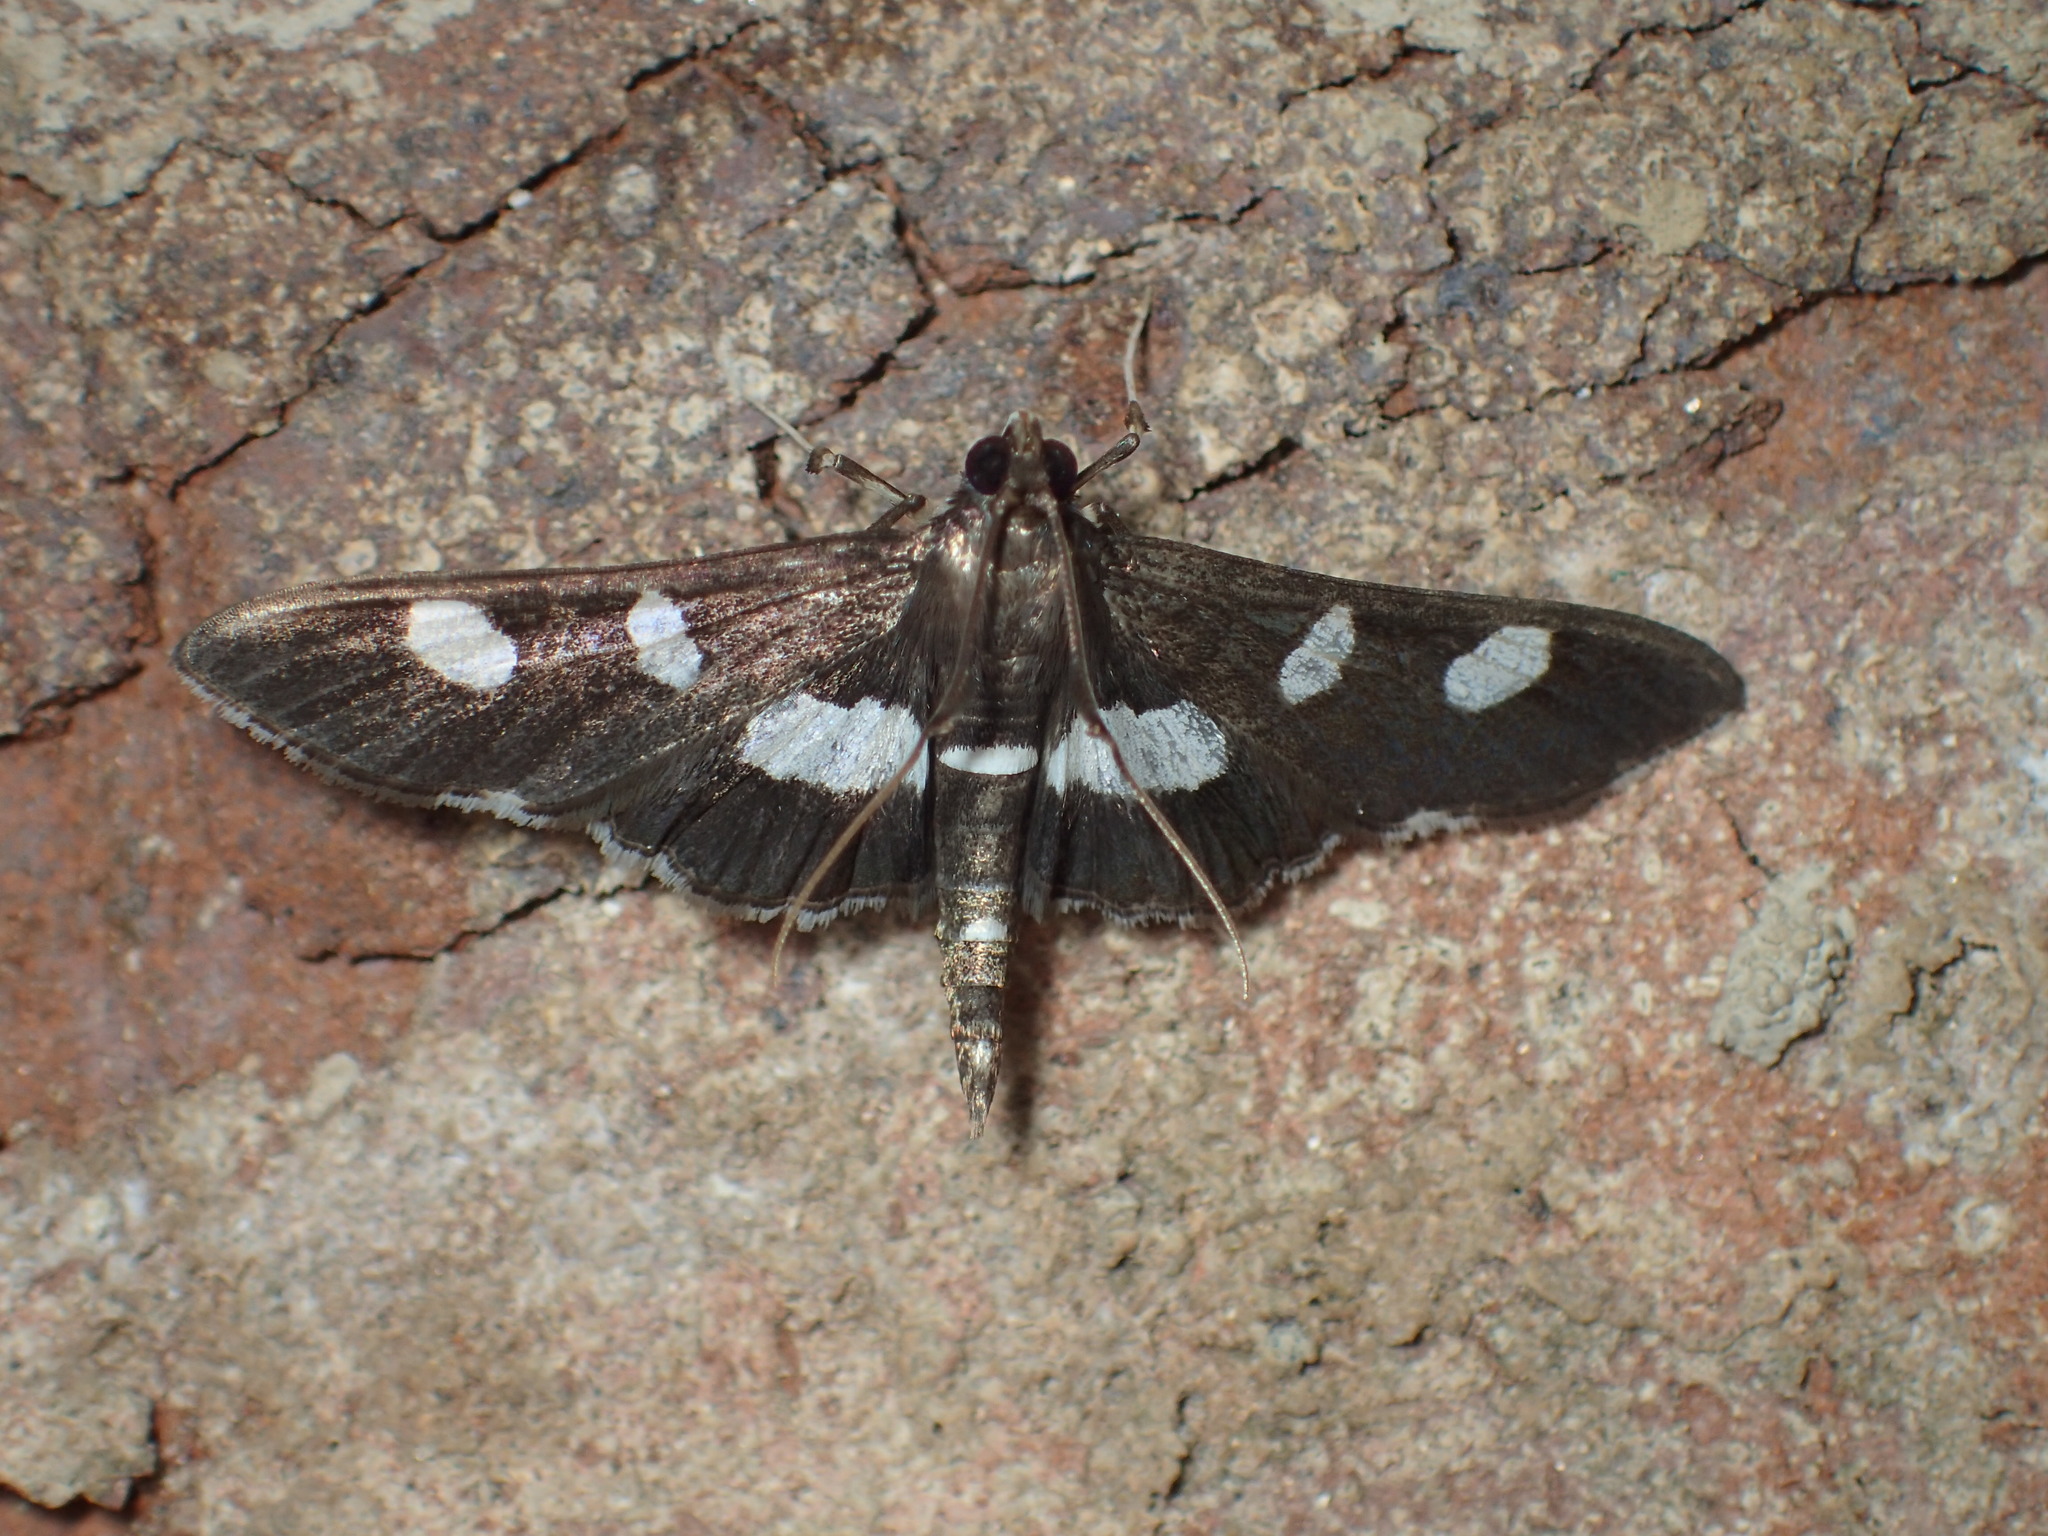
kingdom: Animalia
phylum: Arthropoda
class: Insecta
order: Lepidoptera
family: Crambidae
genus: Desmia
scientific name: Desmia
